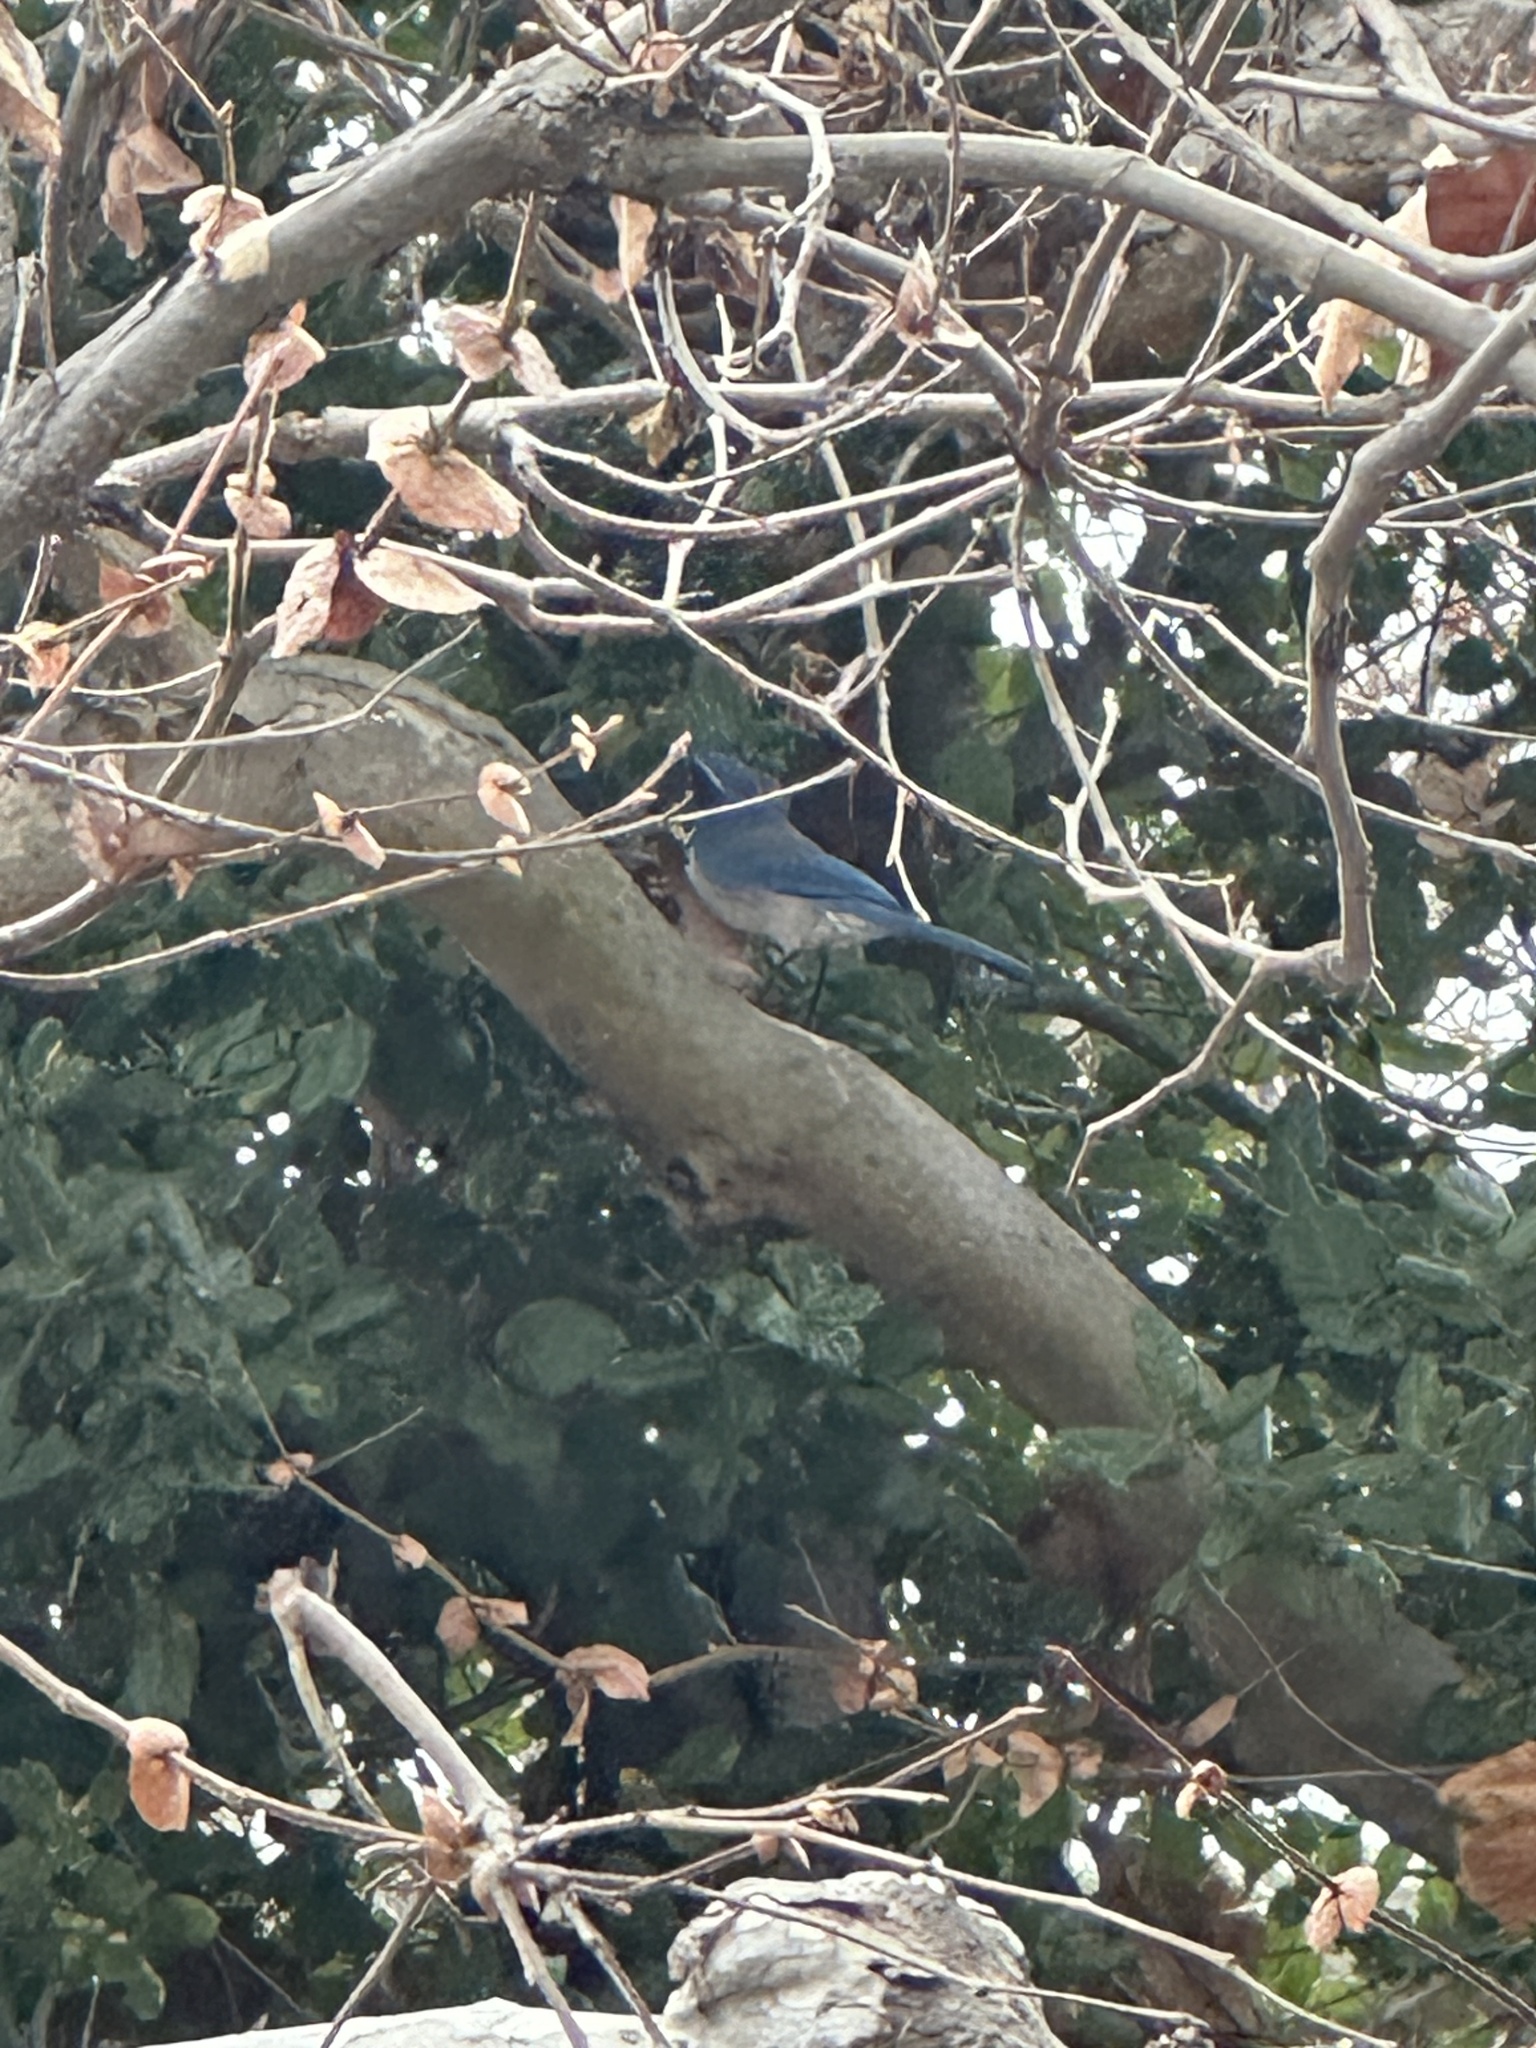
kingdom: Animalia
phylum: Chordata
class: Aves
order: Passeriformes
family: Corvidae
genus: Aphelocoma
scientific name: Aphelocoma californica
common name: California scrub-jay
